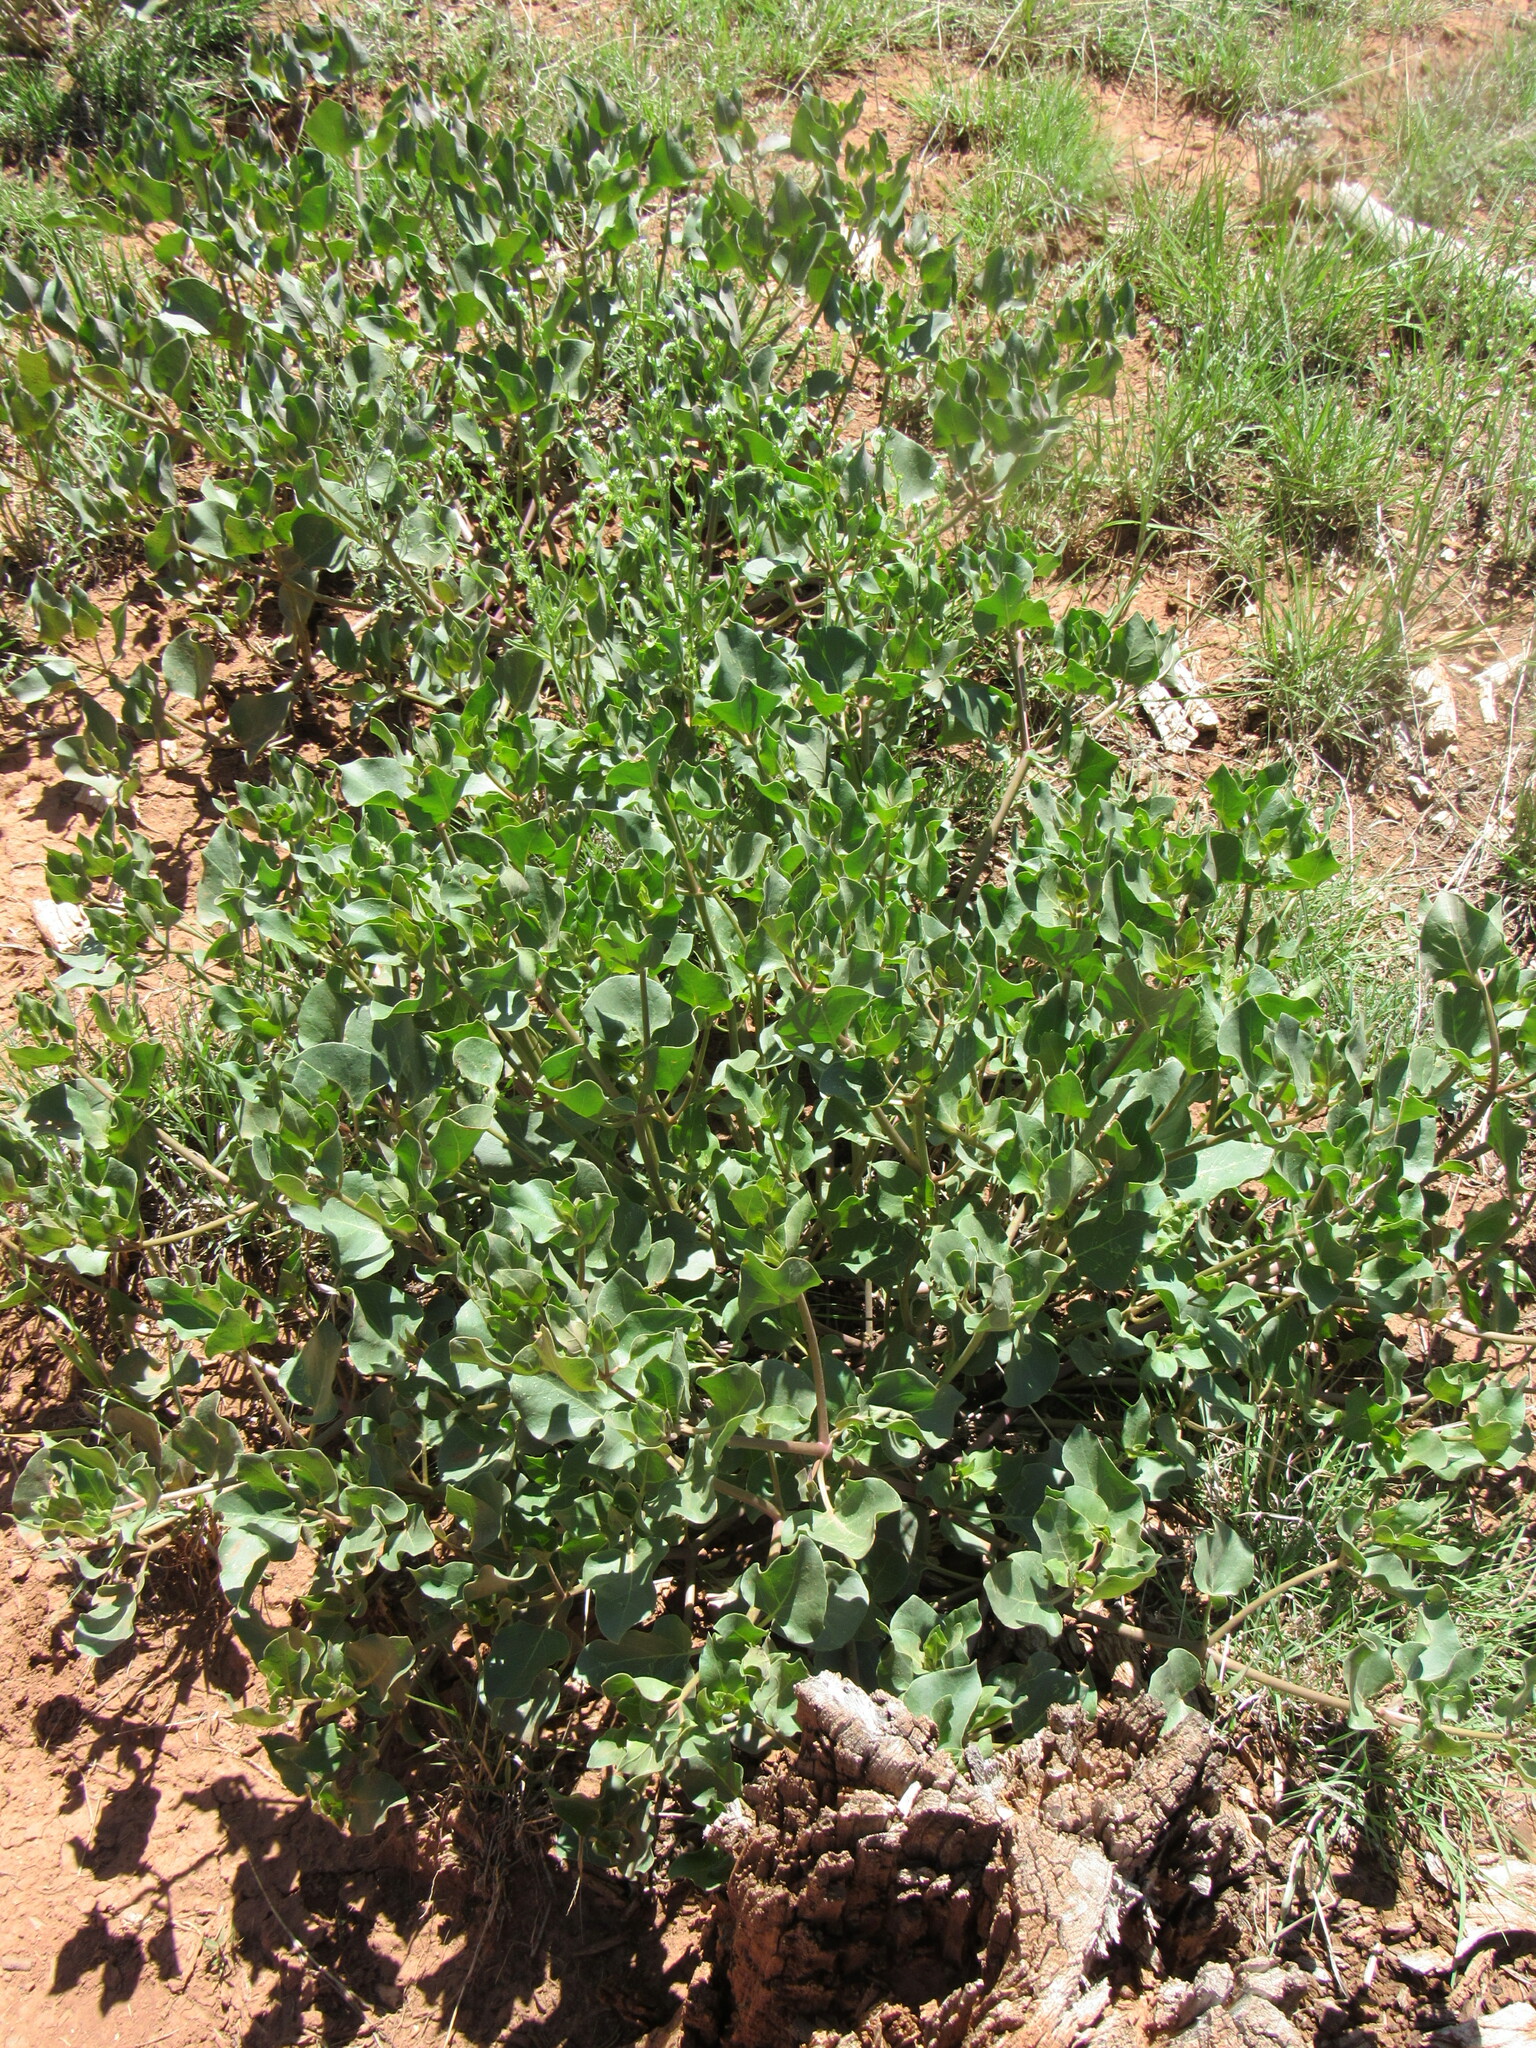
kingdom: Plantae
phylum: Tracheophyta
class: Magnoliopsida
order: Caryophyllales
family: Nyctaginaceae
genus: Mirabilis
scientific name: Mirabilis multiflora
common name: Froebel's four-o'clock
